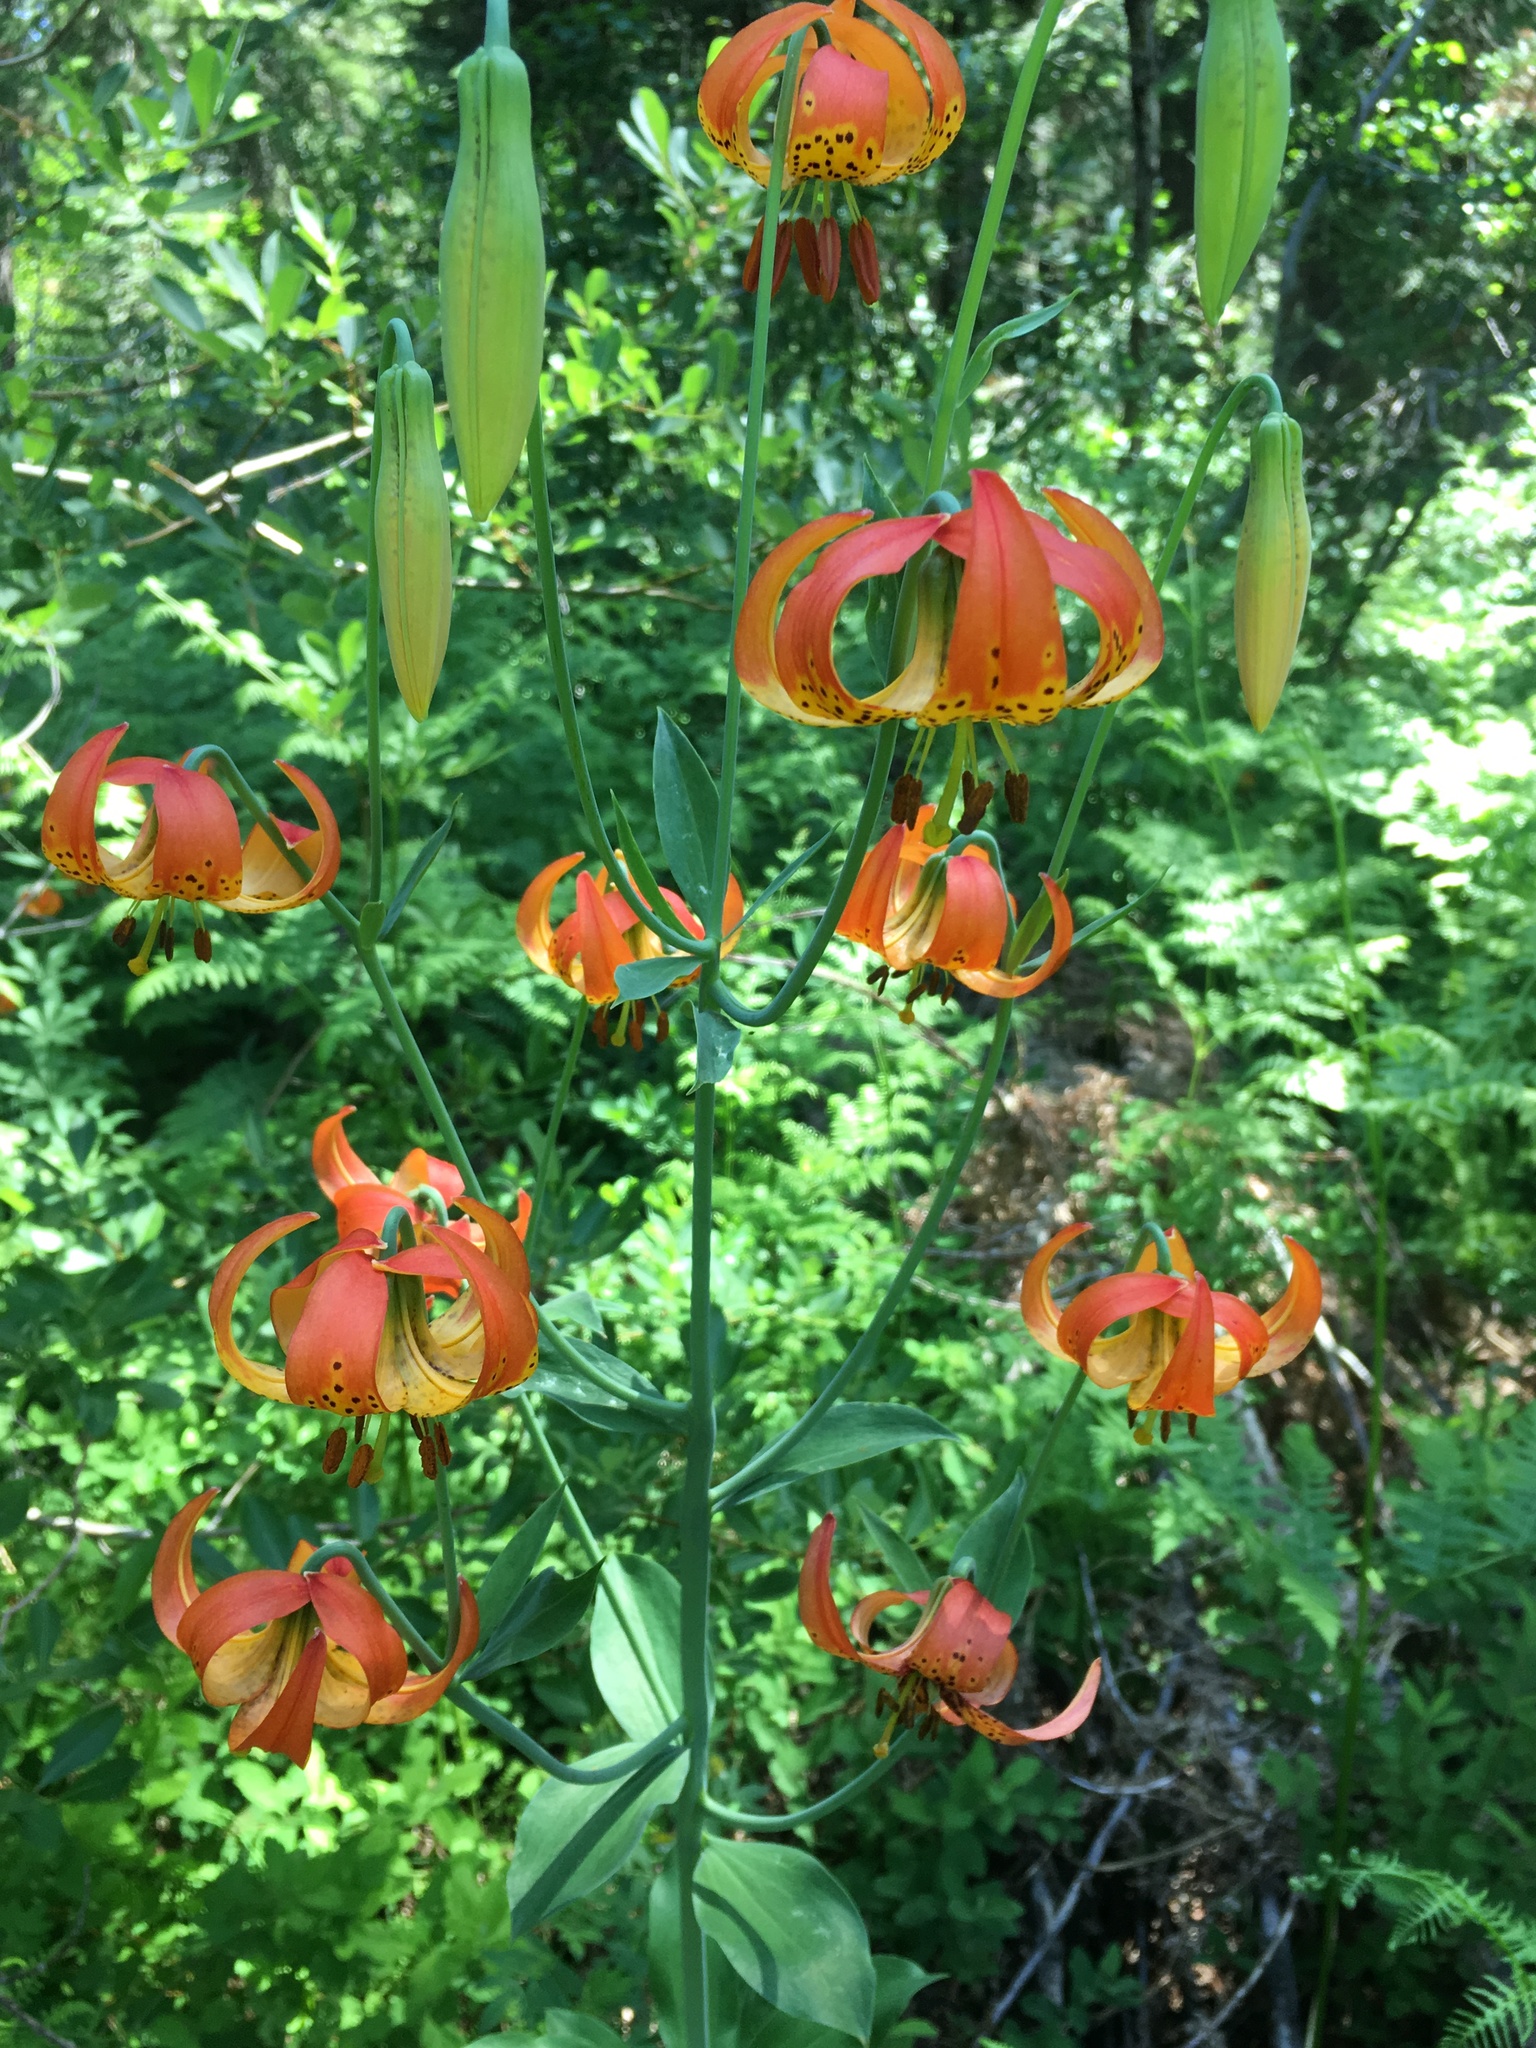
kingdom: Plantae
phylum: Tracheophyta
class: Liliopsida
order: Liliales
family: Liliaceae
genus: Lilium
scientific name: Lilium pardalinum
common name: Panther lily
